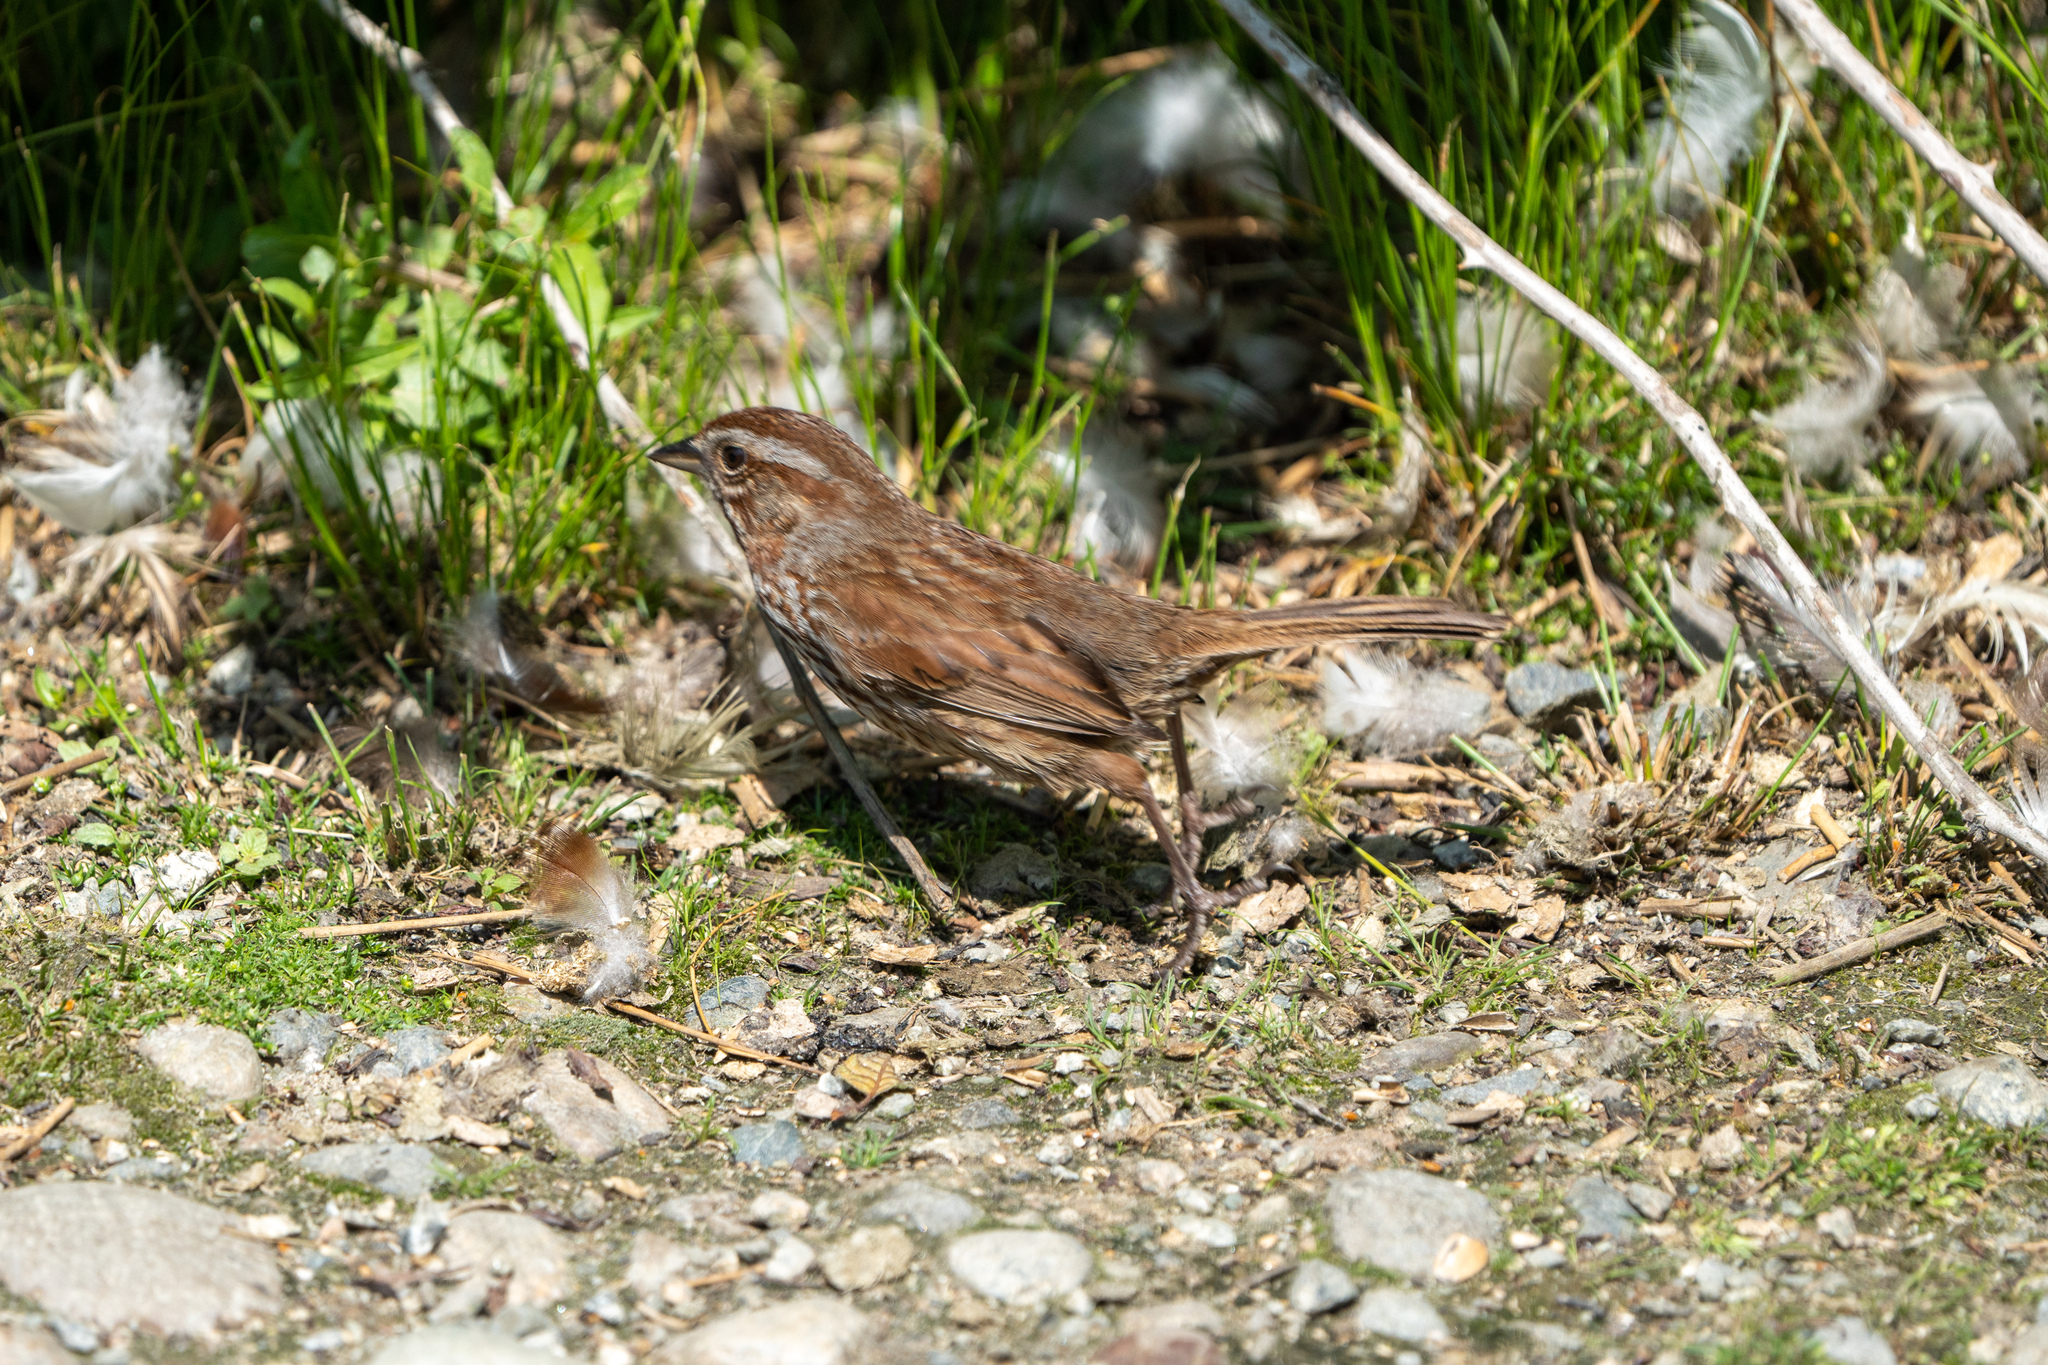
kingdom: Animalia
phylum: Chordata
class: Aves
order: Passeriformes
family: Passerellidae
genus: Melospiza
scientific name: Melospiza melodia
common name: Song sparrow
